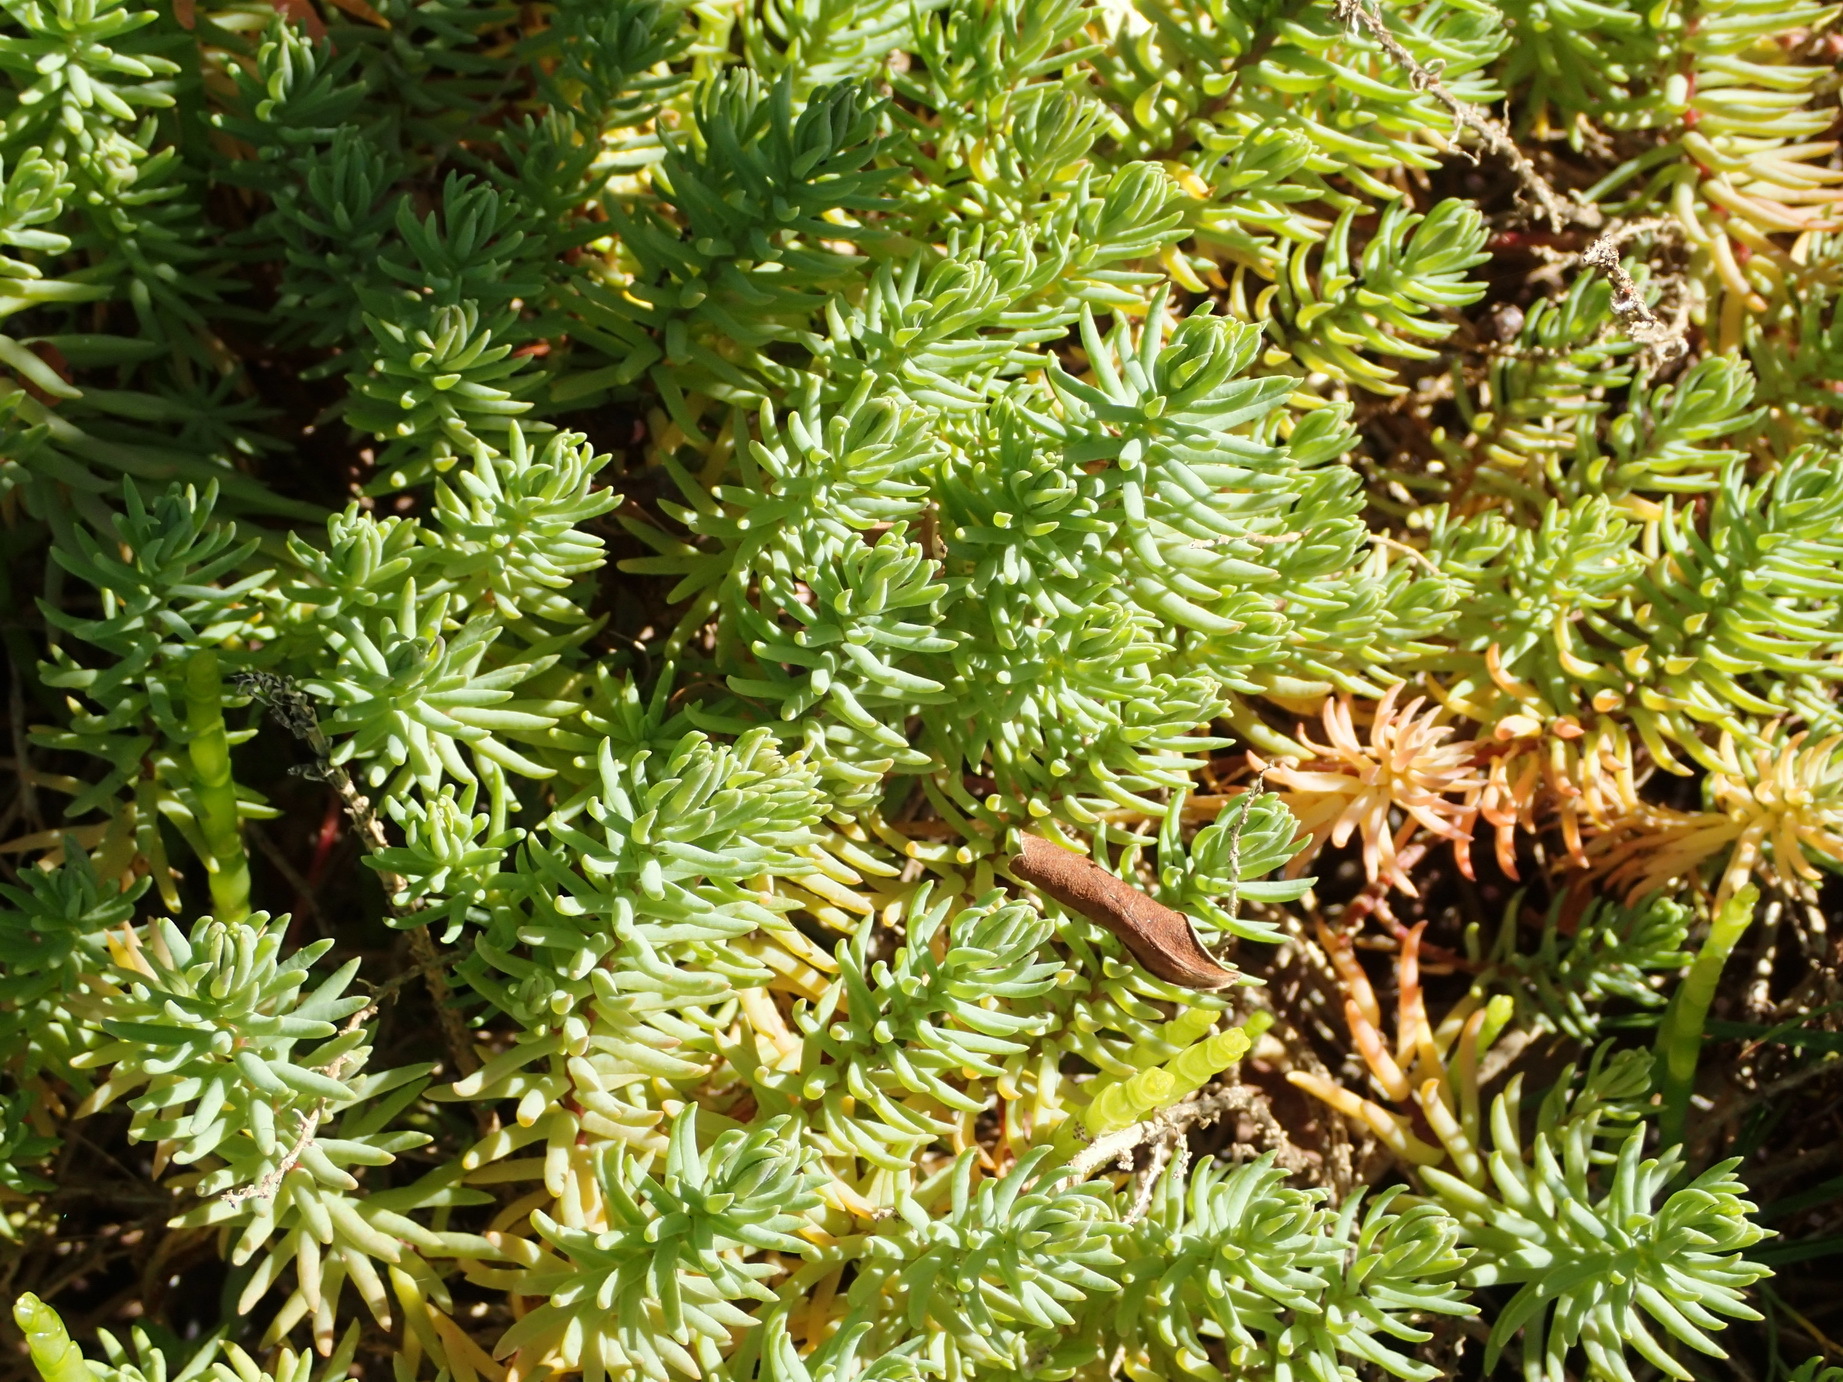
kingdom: Plantae
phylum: Tracheophyta
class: Magnoliopsida
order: Caryophyllales
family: Amaranthaceae
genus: Chenolea
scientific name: Chenolea diffusa
